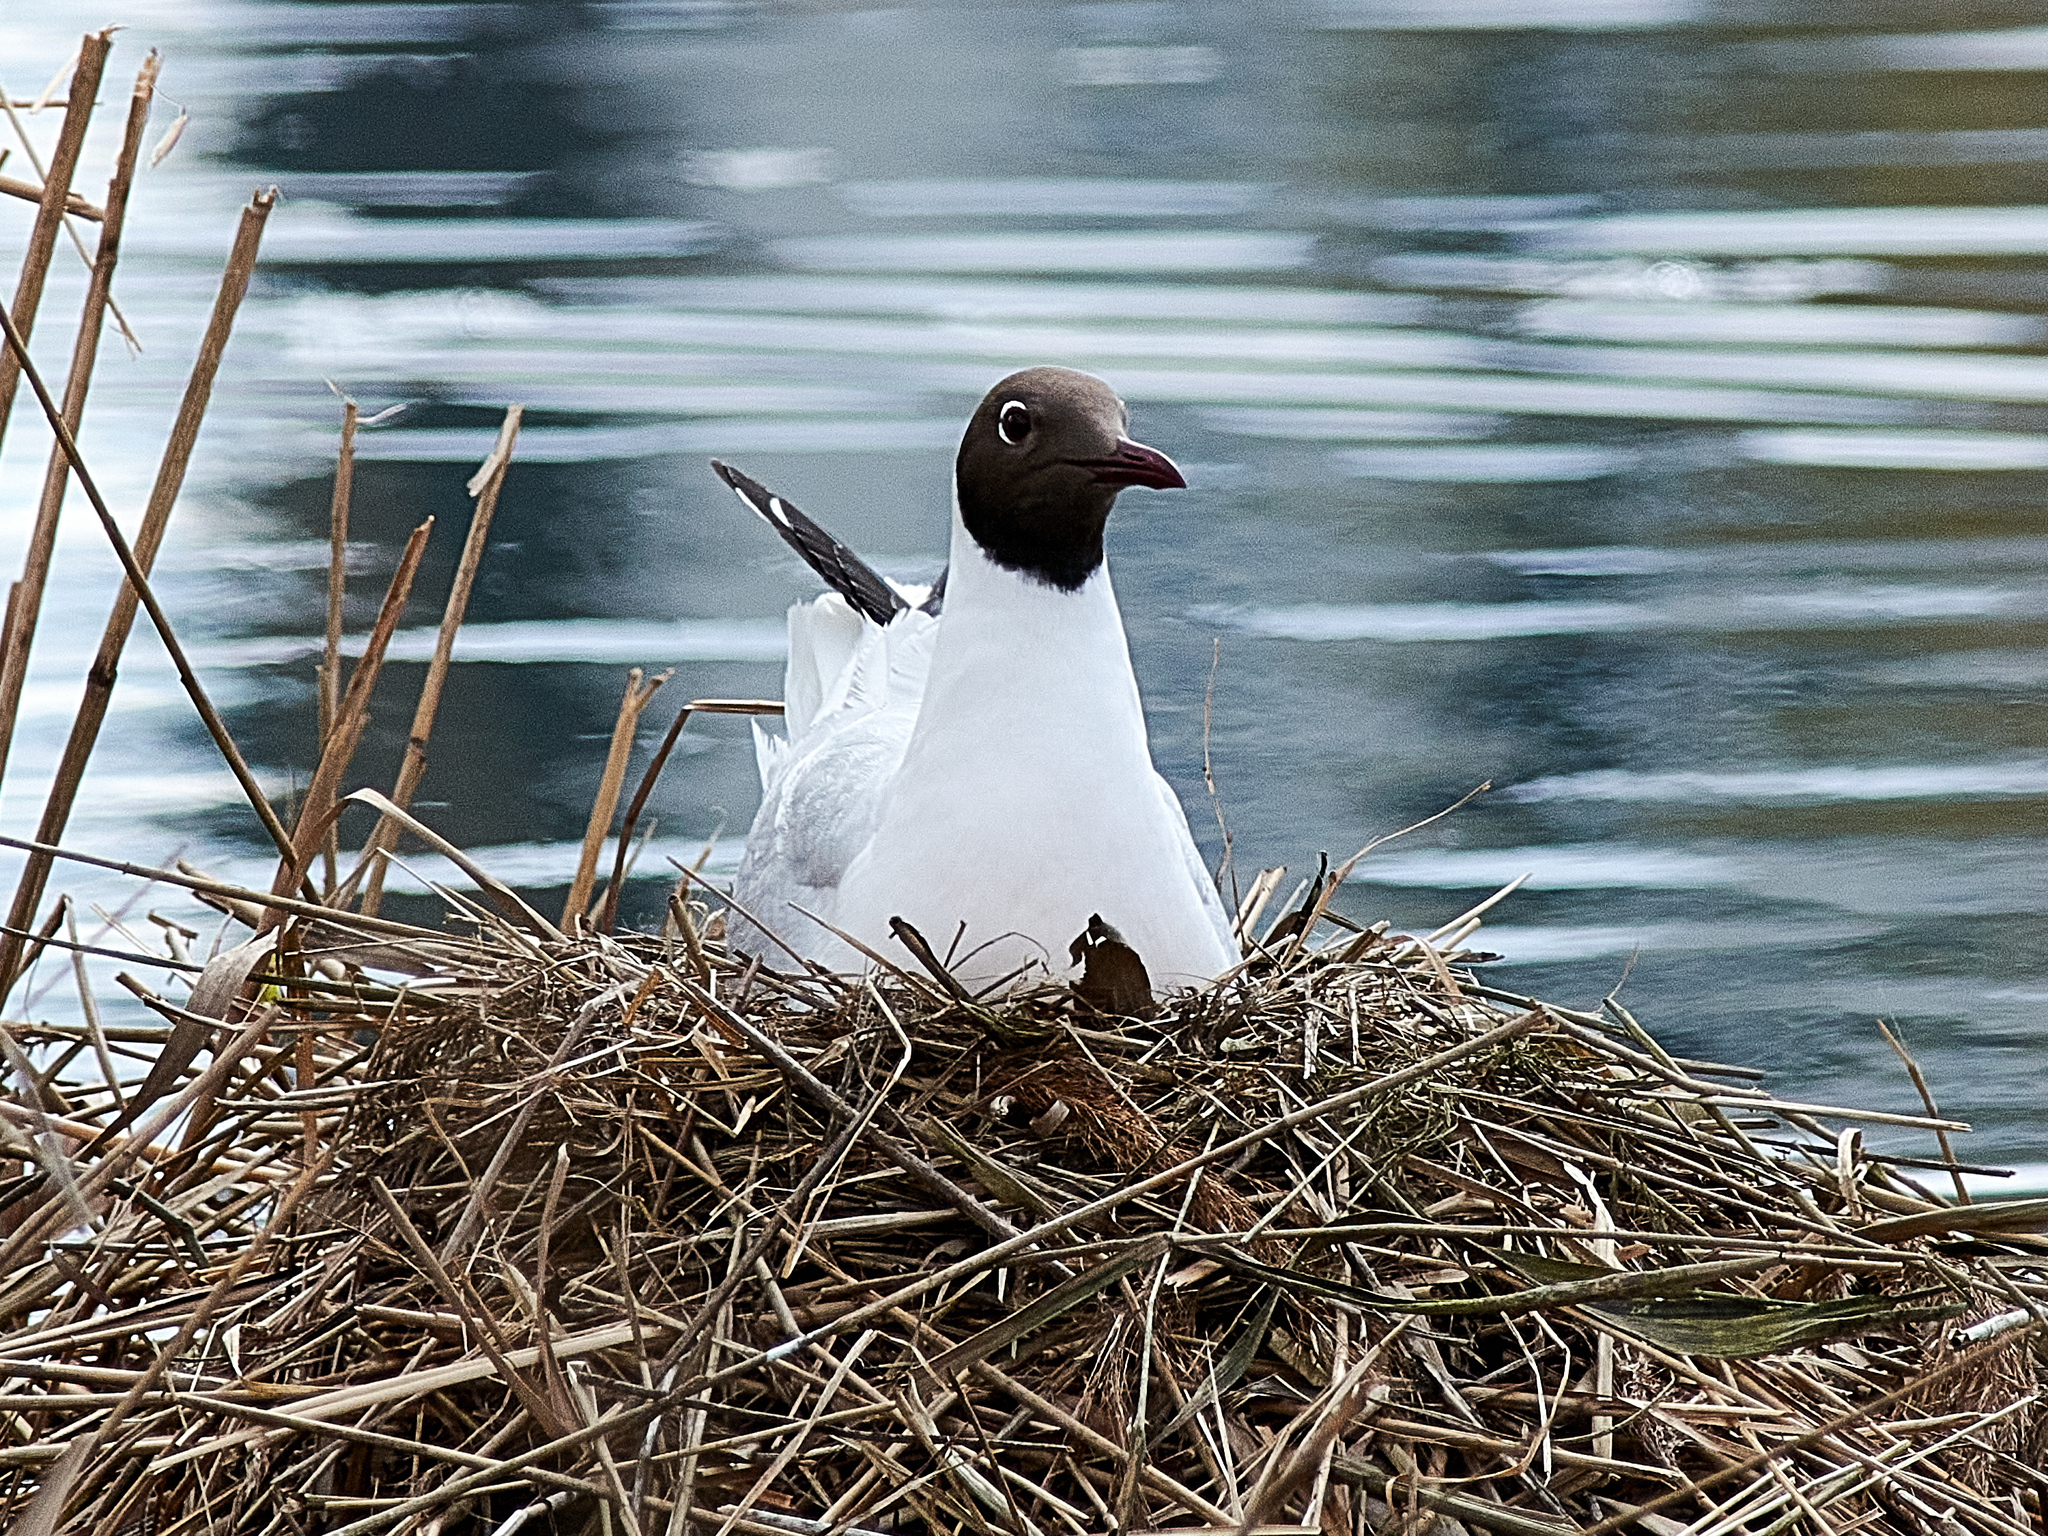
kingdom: Animalia
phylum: Chordata
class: Aves
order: Charadriiformes
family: Laridae
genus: Chroicocephalus
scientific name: Chroicocephalus ridibundus
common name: Black-headed gull
